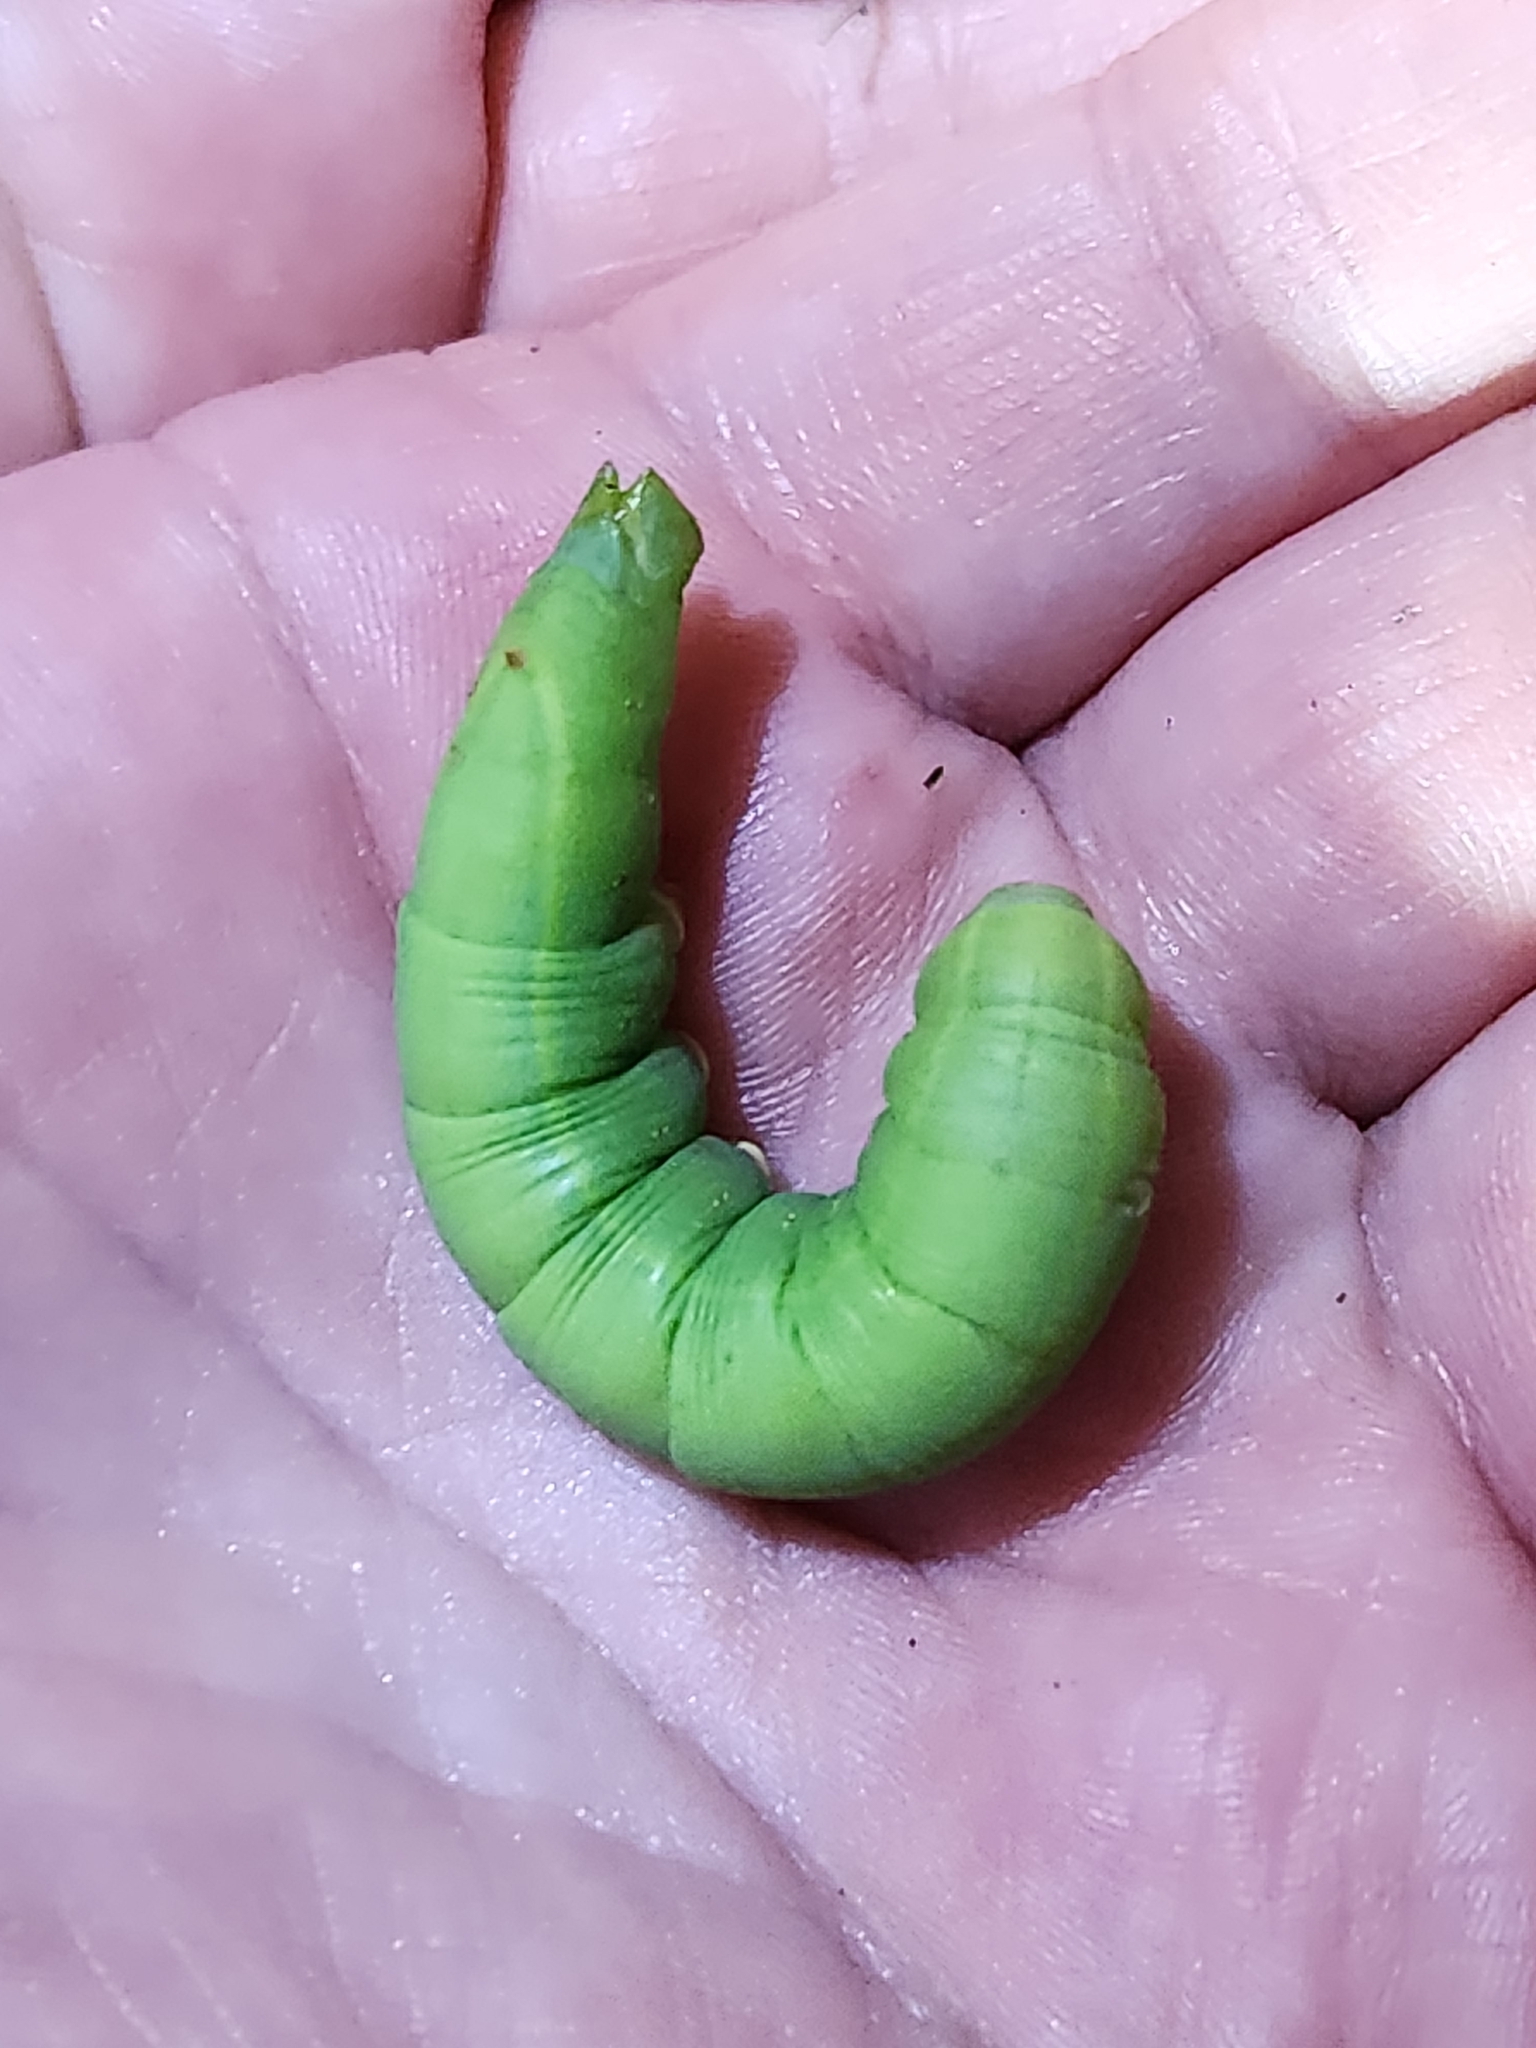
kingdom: Animalia
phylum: Arthropoda
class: Insecta
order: Lepidoptera
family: Sphingidae
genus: Erinnyis
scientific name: Erinnyis obscura
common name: Obscure sphinx
